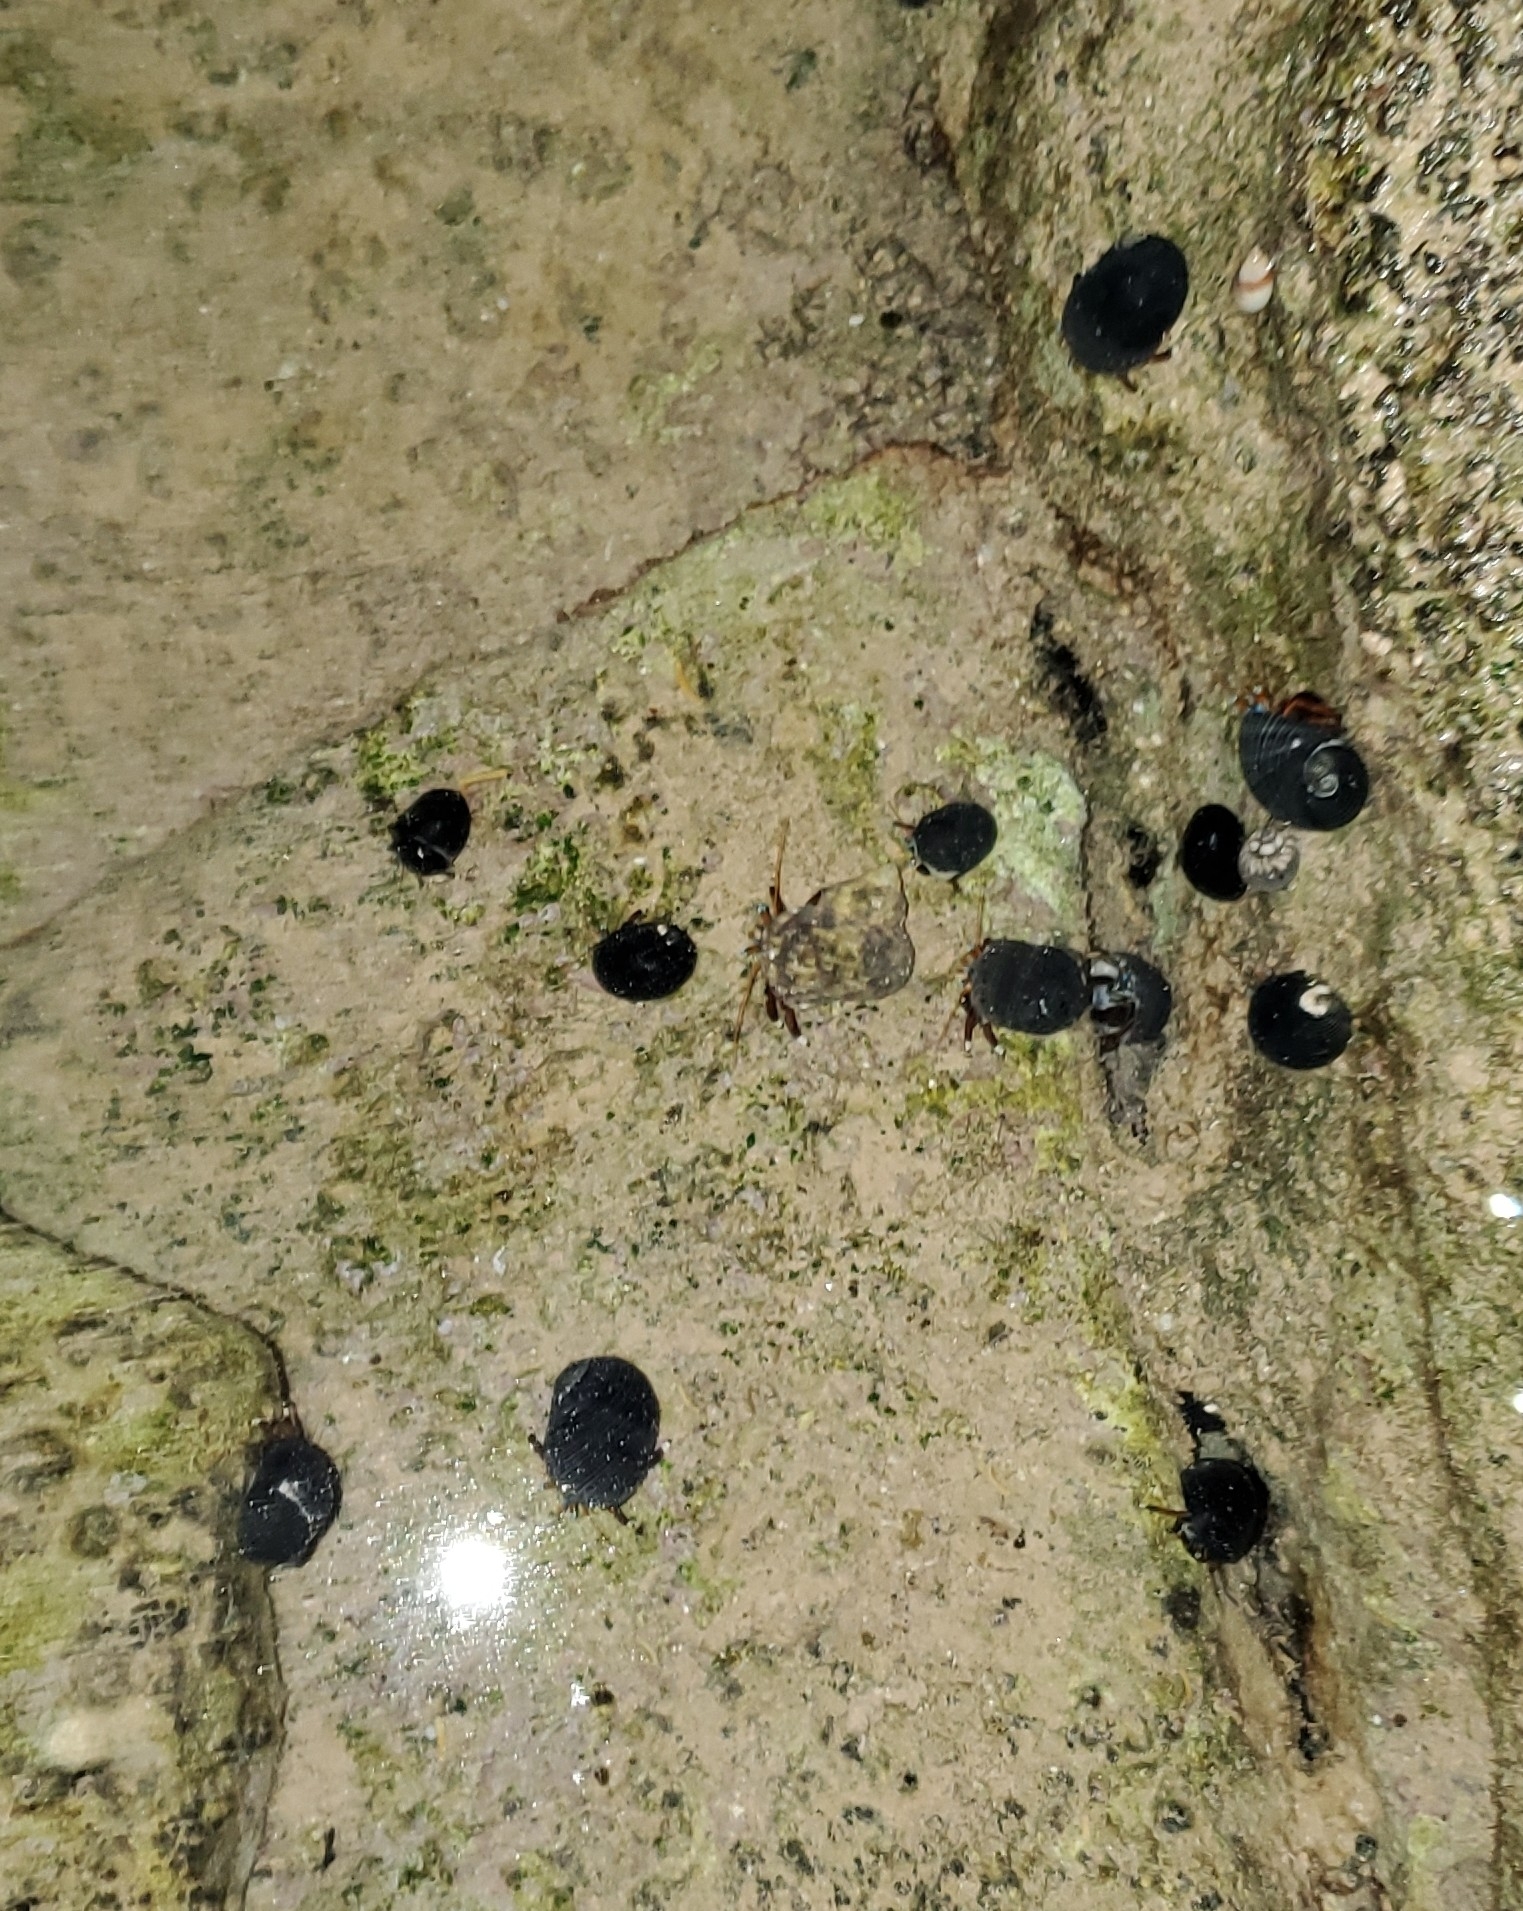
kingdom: Animalia
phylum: Arthropoda
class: Malacostraca
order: Decapoda
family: Diogenidae
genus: Calcinus
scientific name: Calcinus laevimanus
